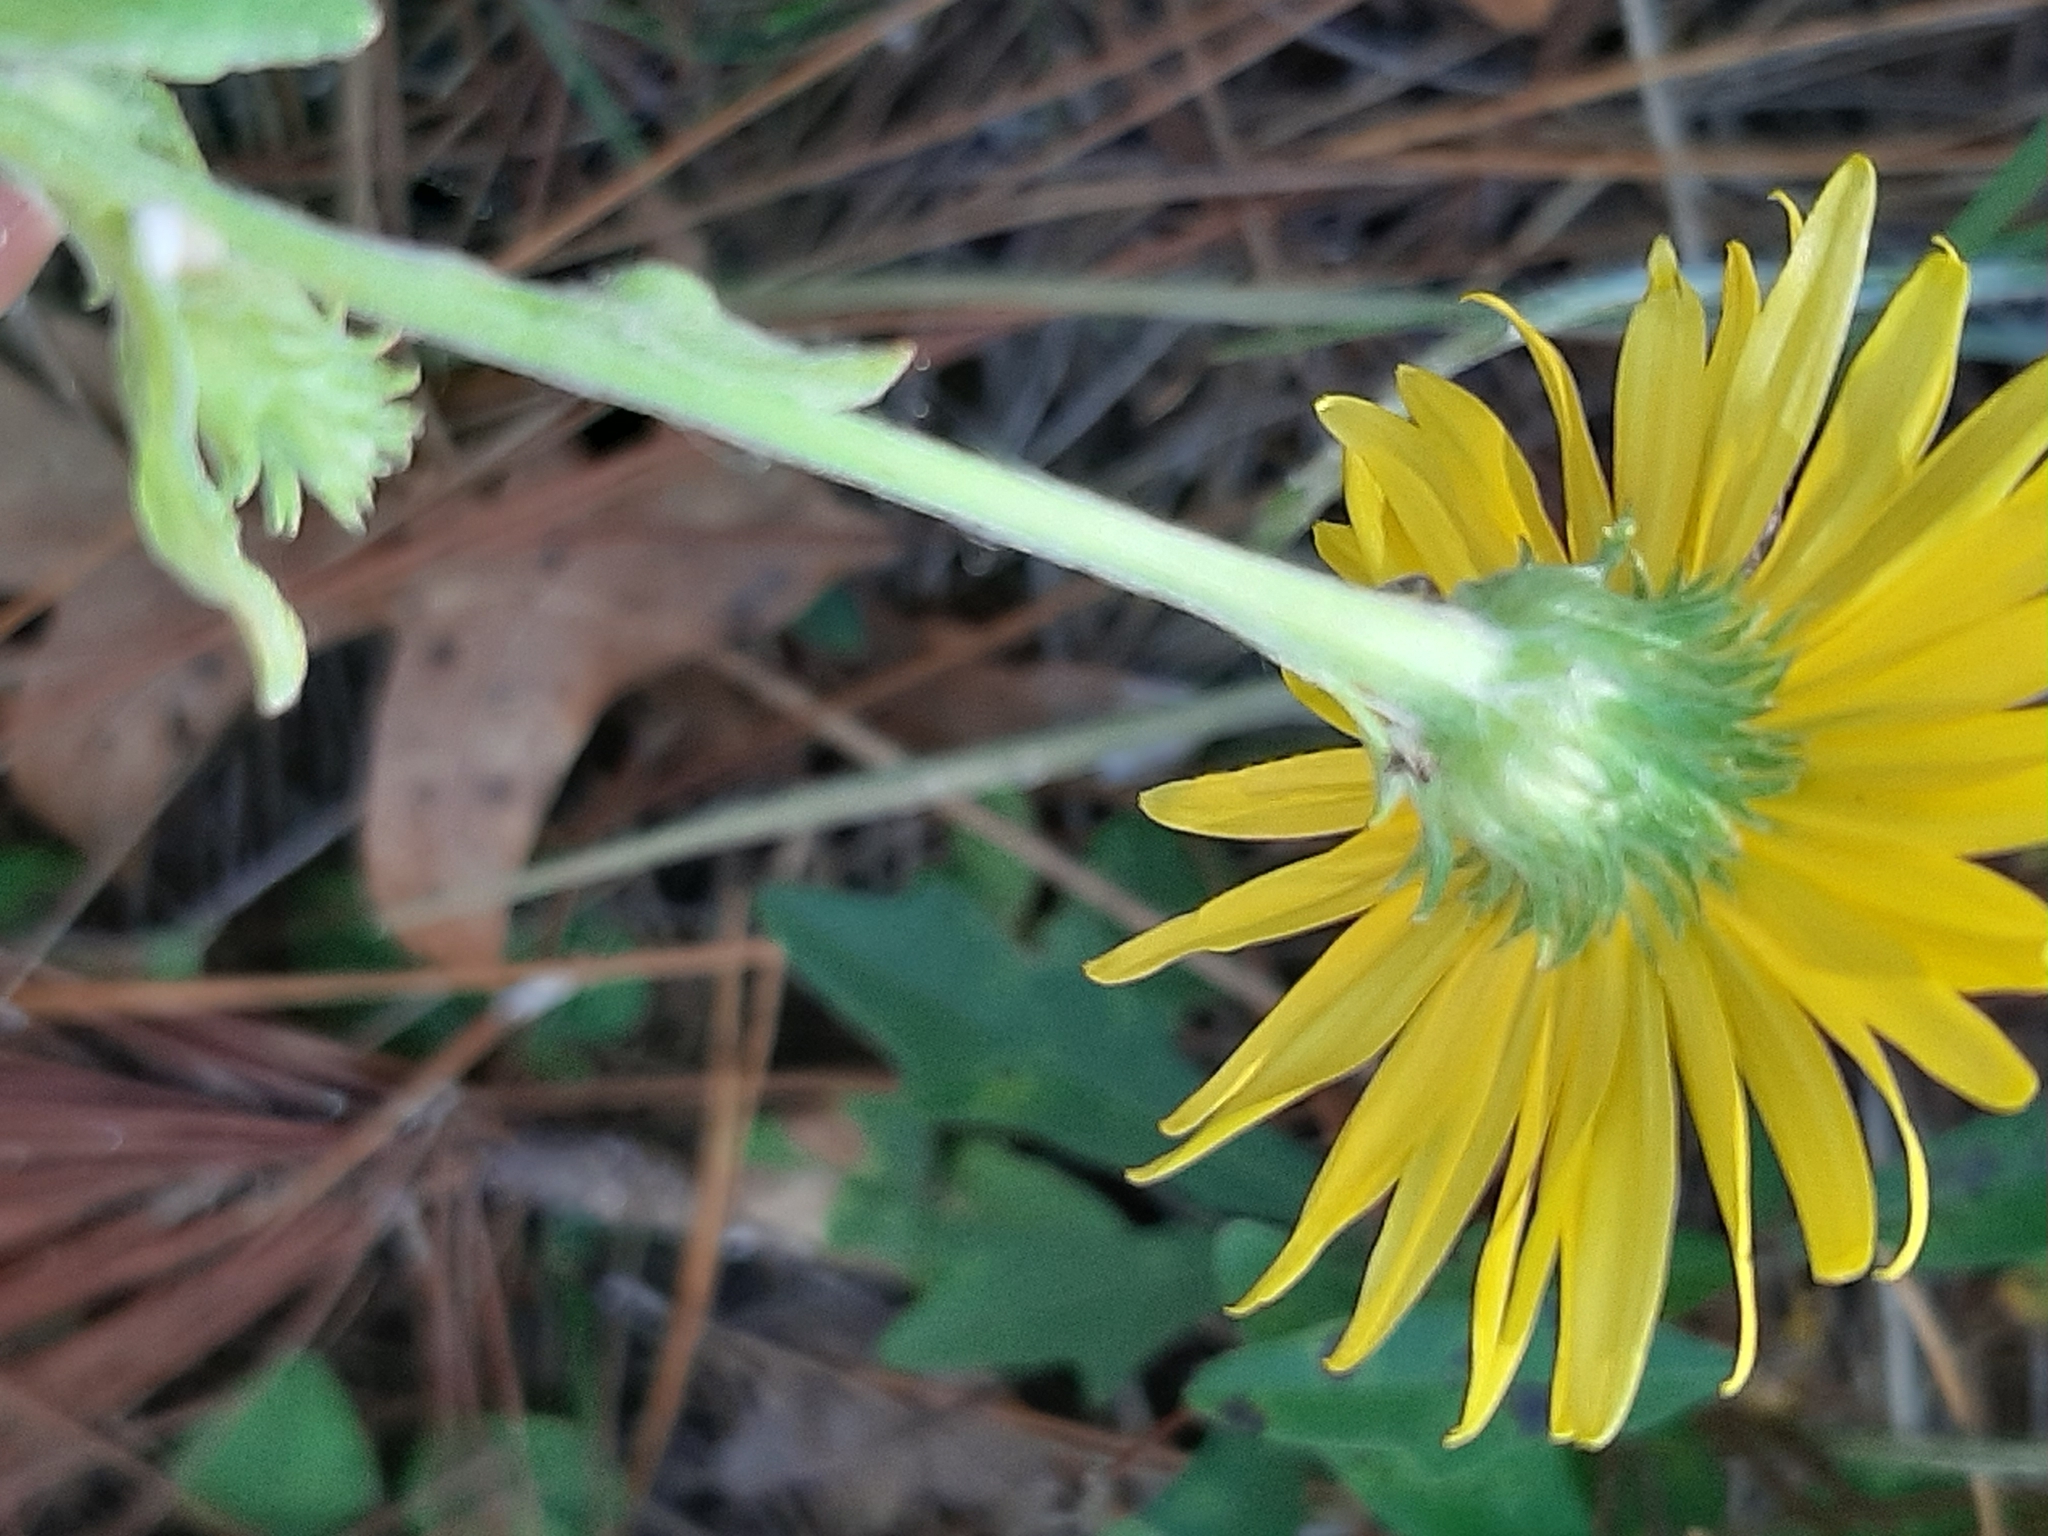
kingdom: Plantae
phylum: Tracheophyta
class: Magnoliopsida
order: Asterales
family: Asteraceae
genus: Heterotheca
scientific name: Heterotheca subaxillaris
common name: Camphorweed
